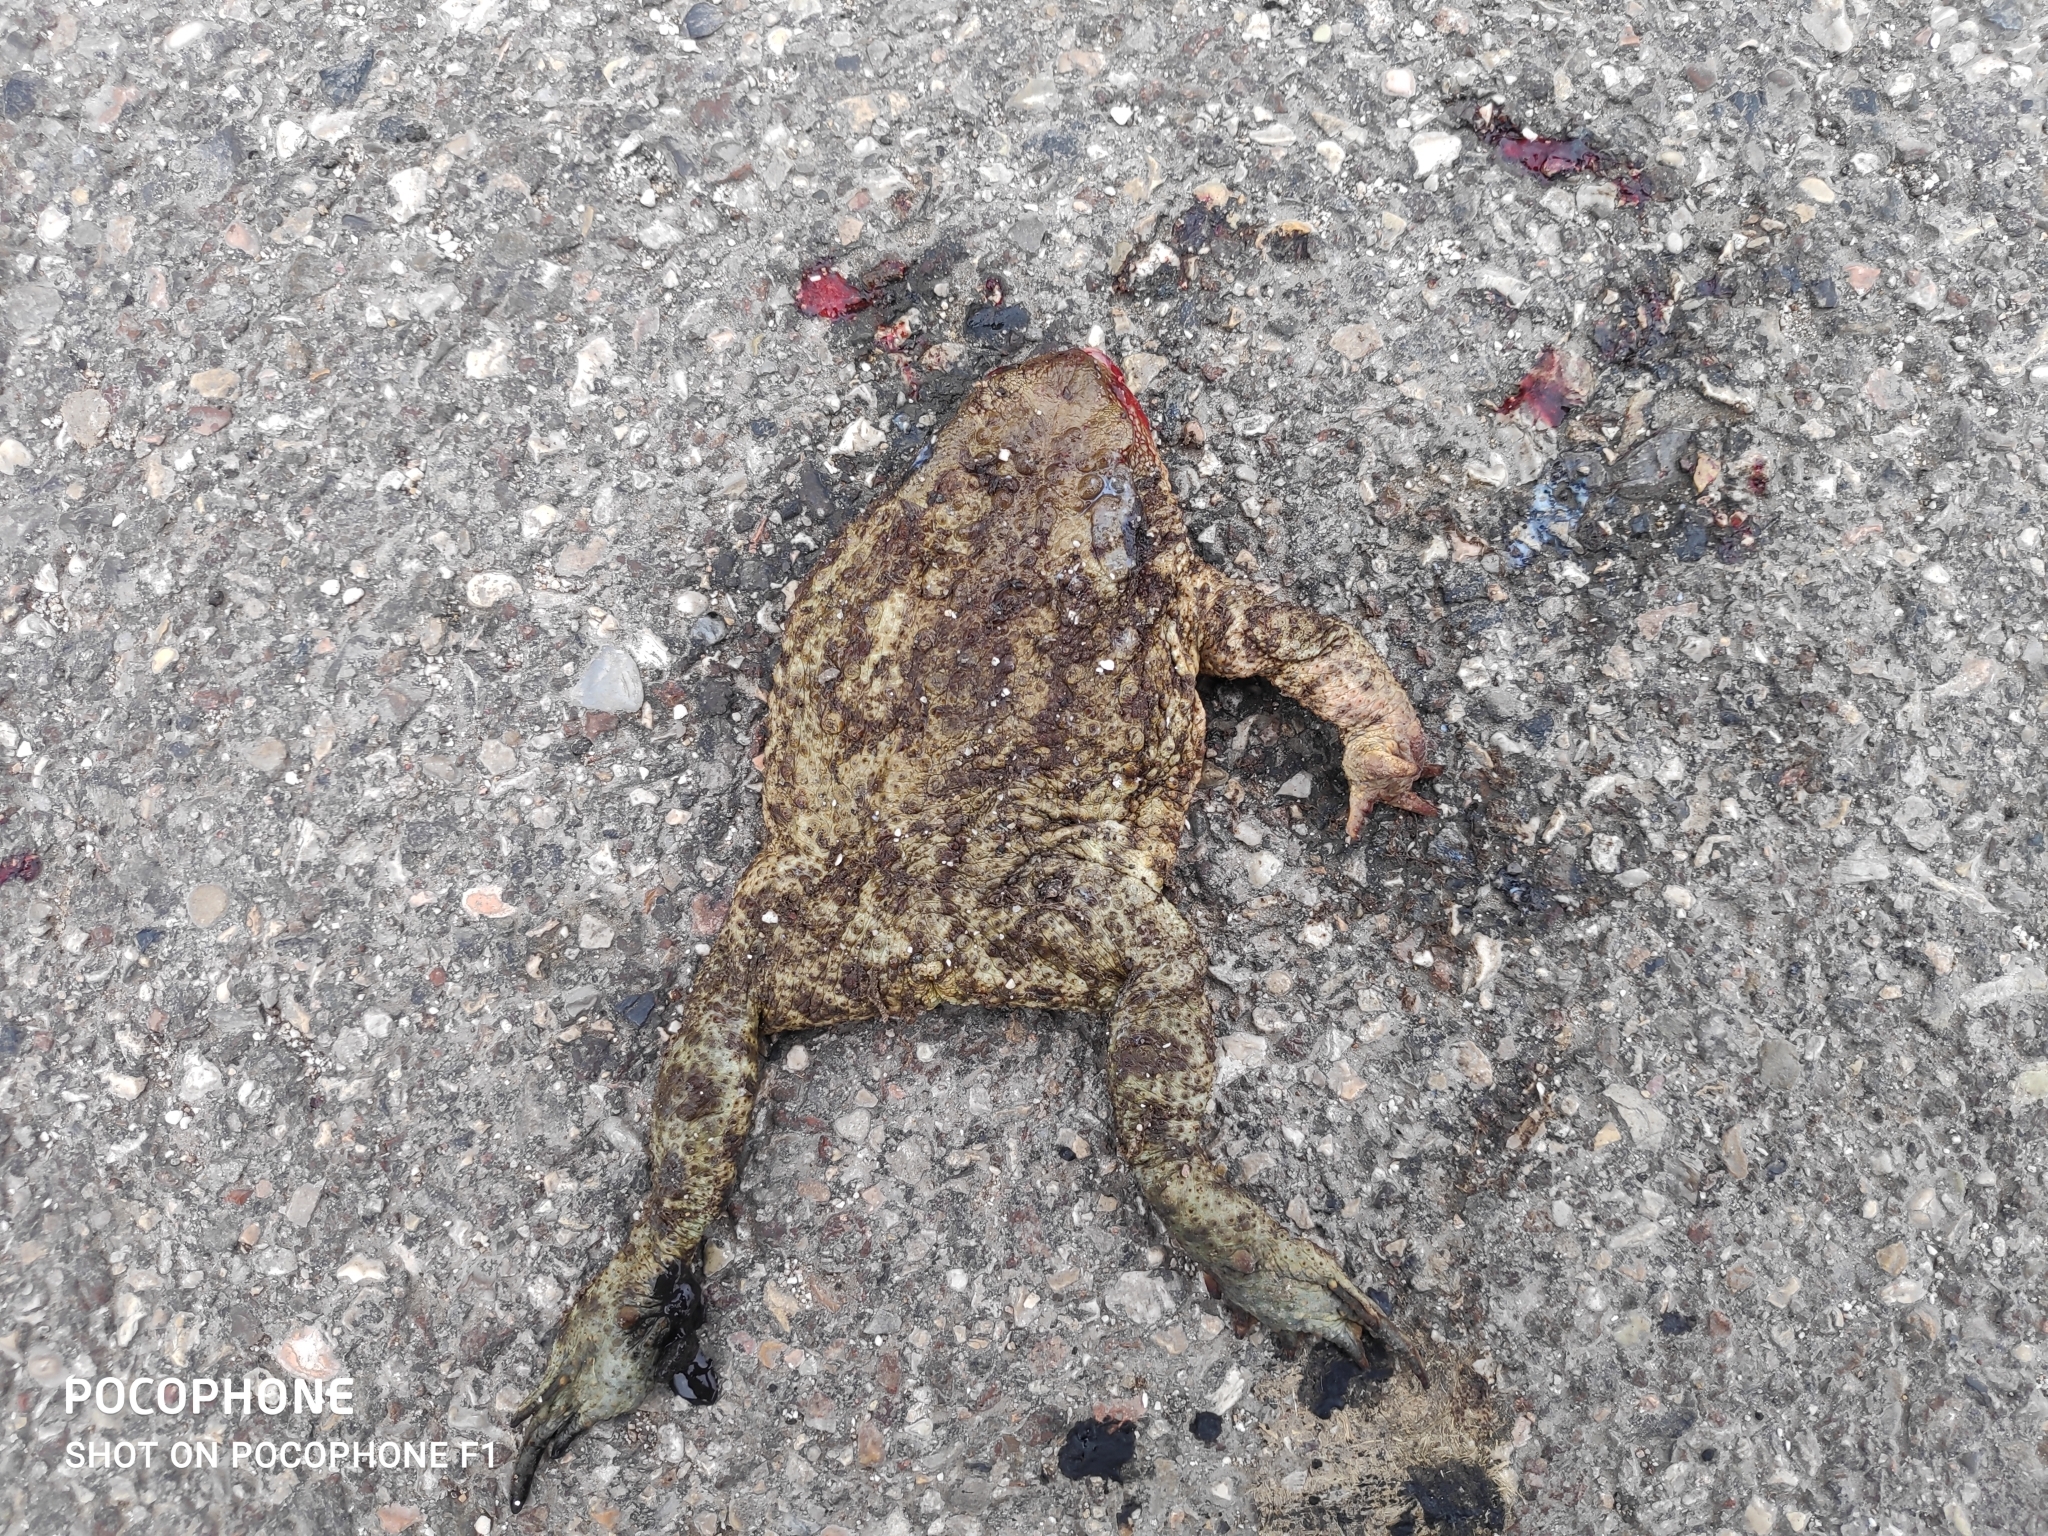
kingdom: Animalia
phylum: Chordata
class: Amphibia
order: Anura
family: Bufonidae
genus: Bufo
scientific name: Bufo bufo
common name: Common toad
